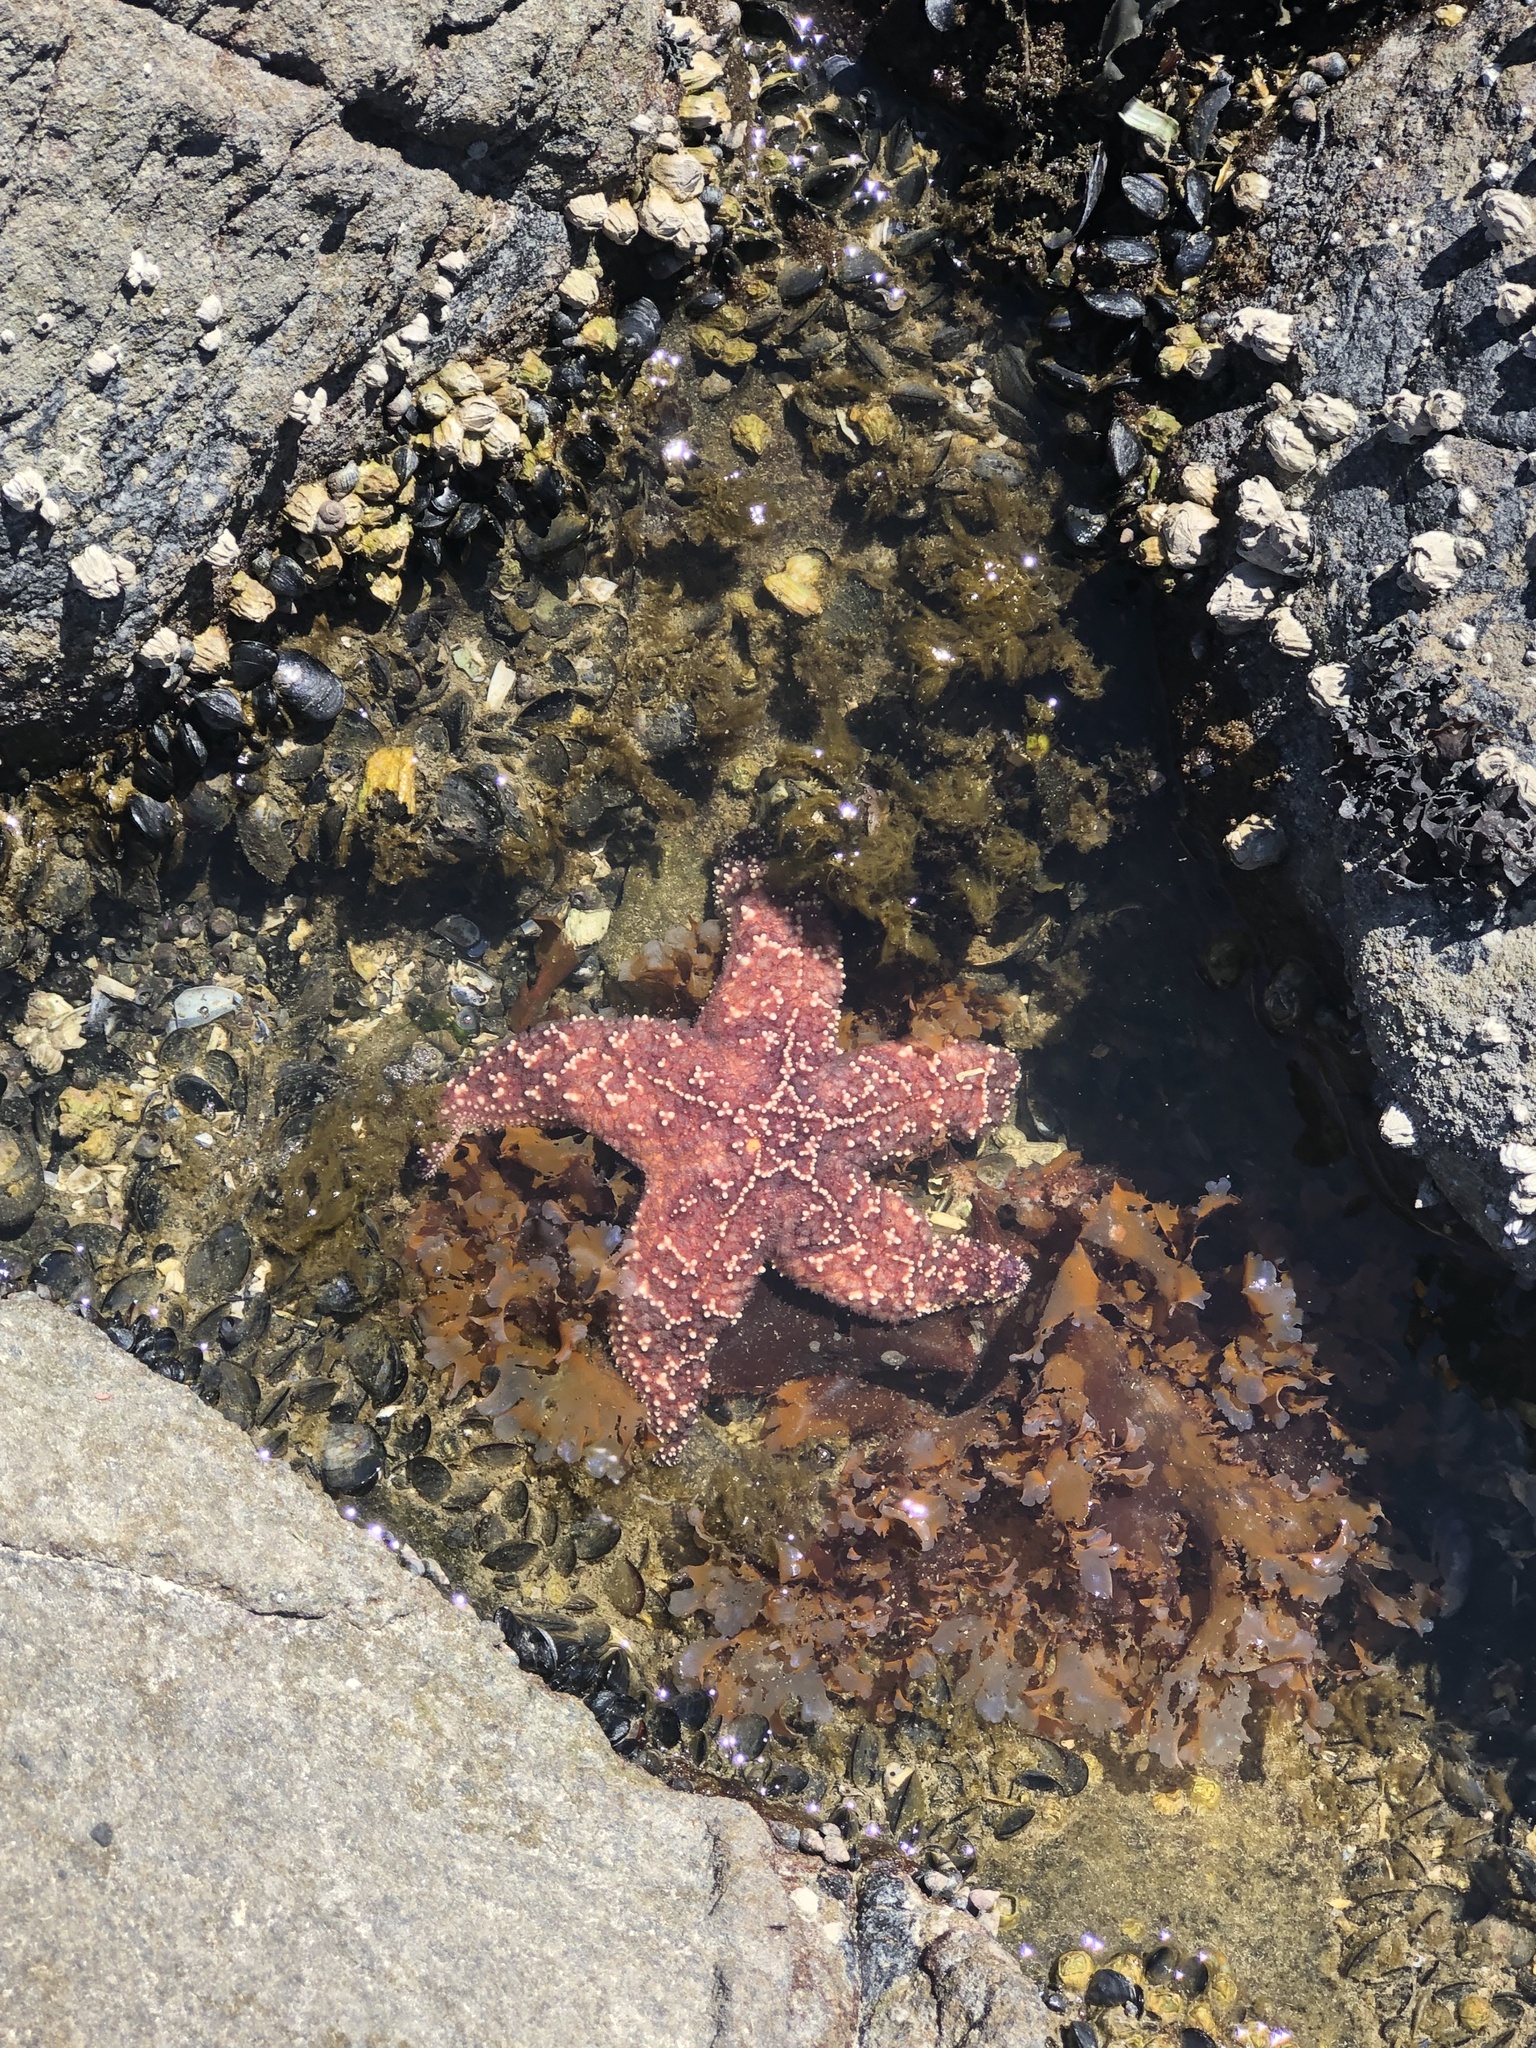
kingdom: Animalia
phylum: Echinodermata
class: Asteroidea
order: Forcipulatida
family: Asteriidae
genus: Pisaster
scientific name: Pisaster ochraceus
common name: Ochre stars
